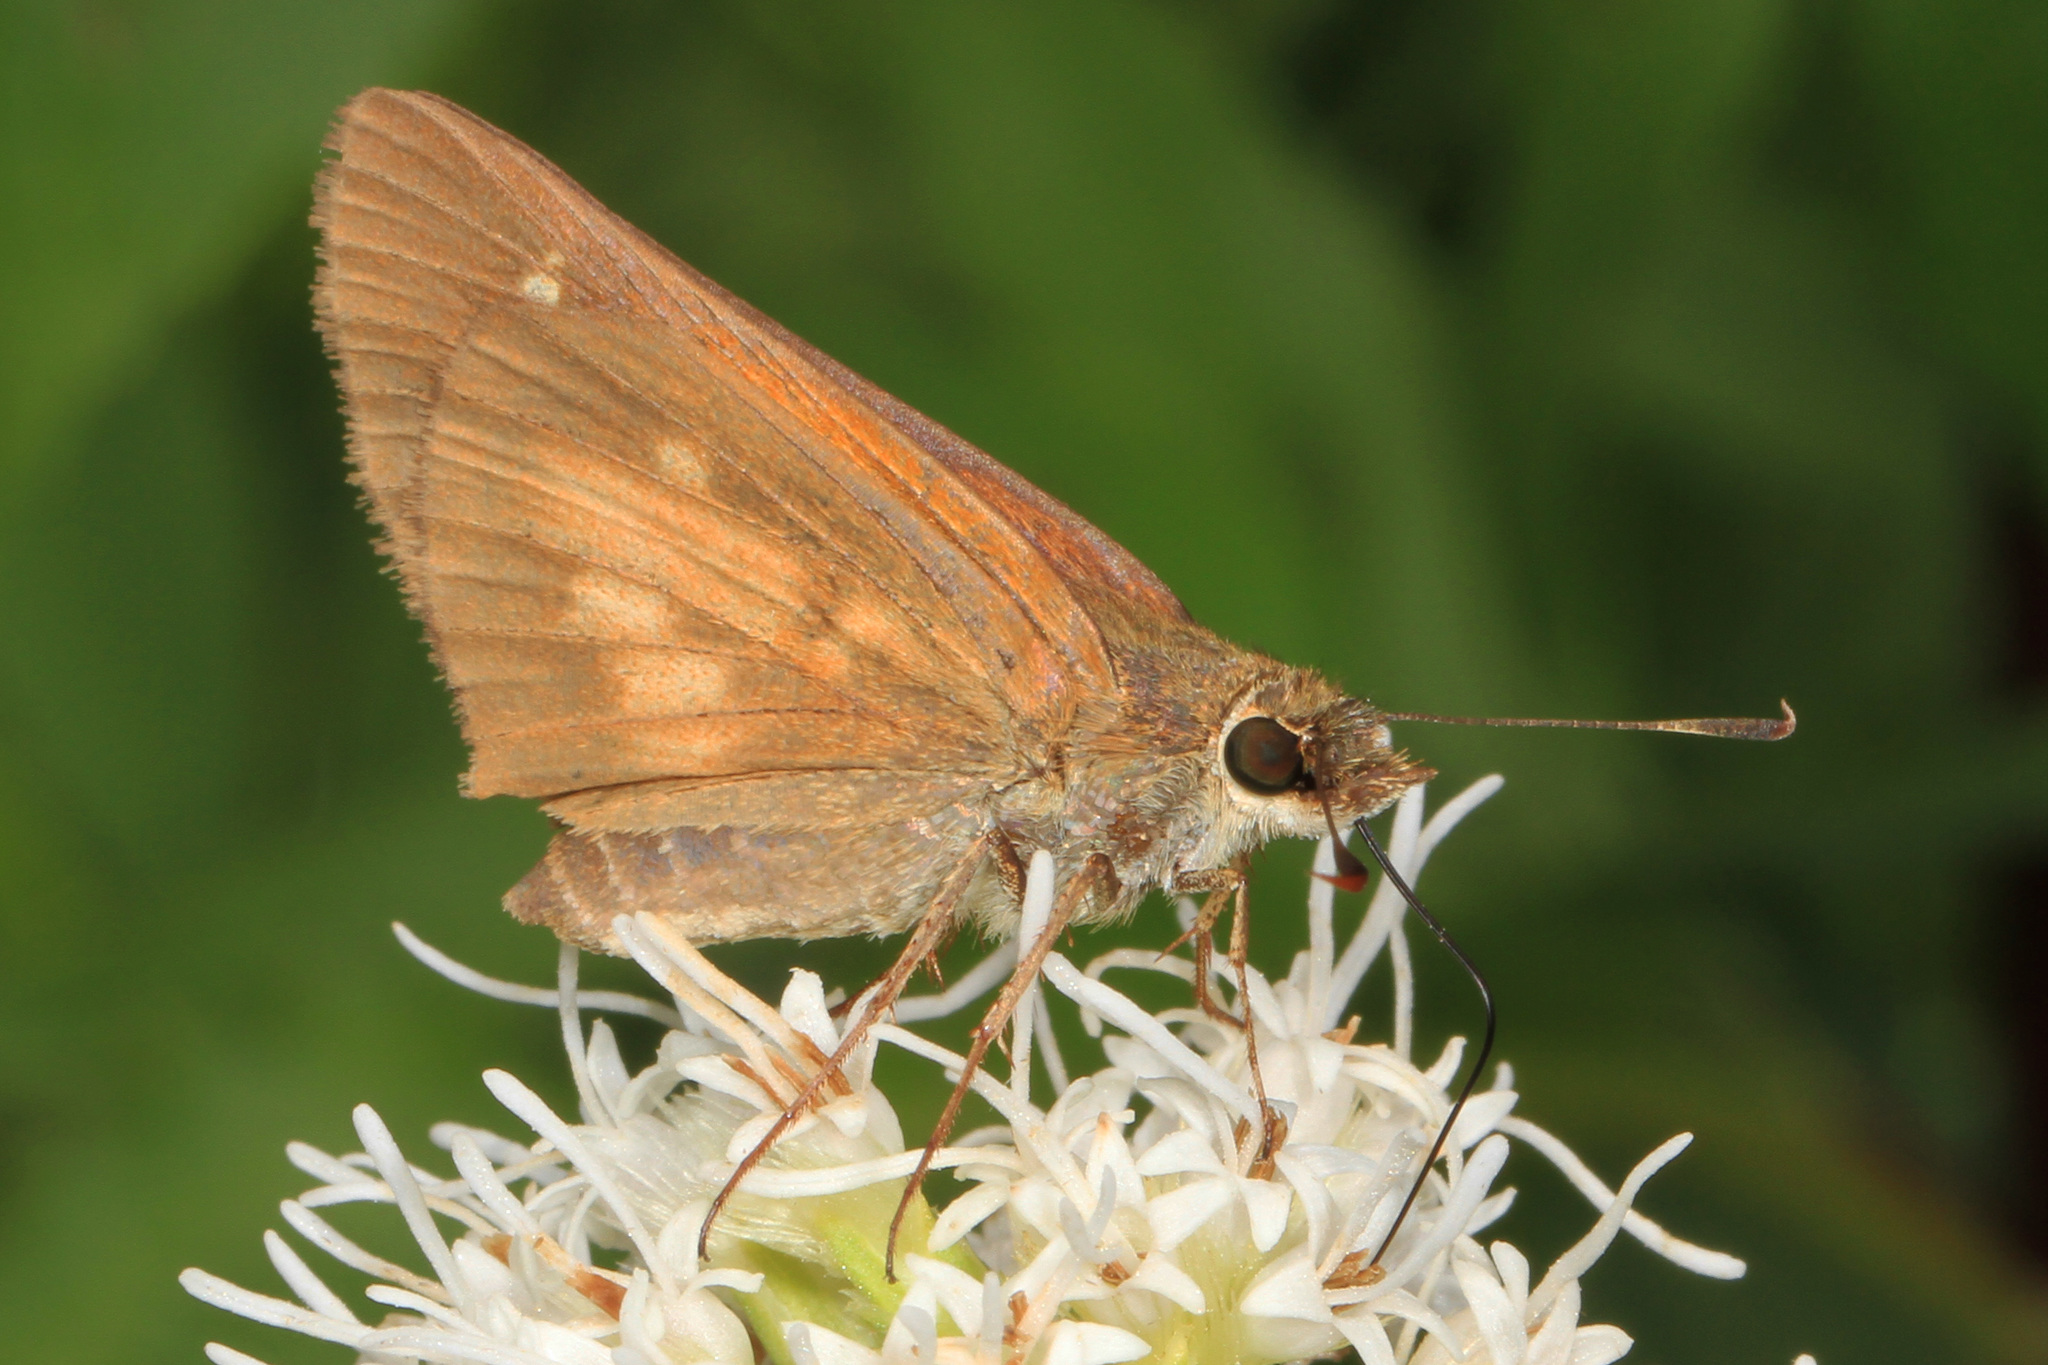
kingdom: Animalia
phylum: Arthropoda
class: Insecta
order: Lepidoptera
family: Hesperiidae
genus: Poanes
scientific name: Poanes viator
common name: Broad-winged skipper
